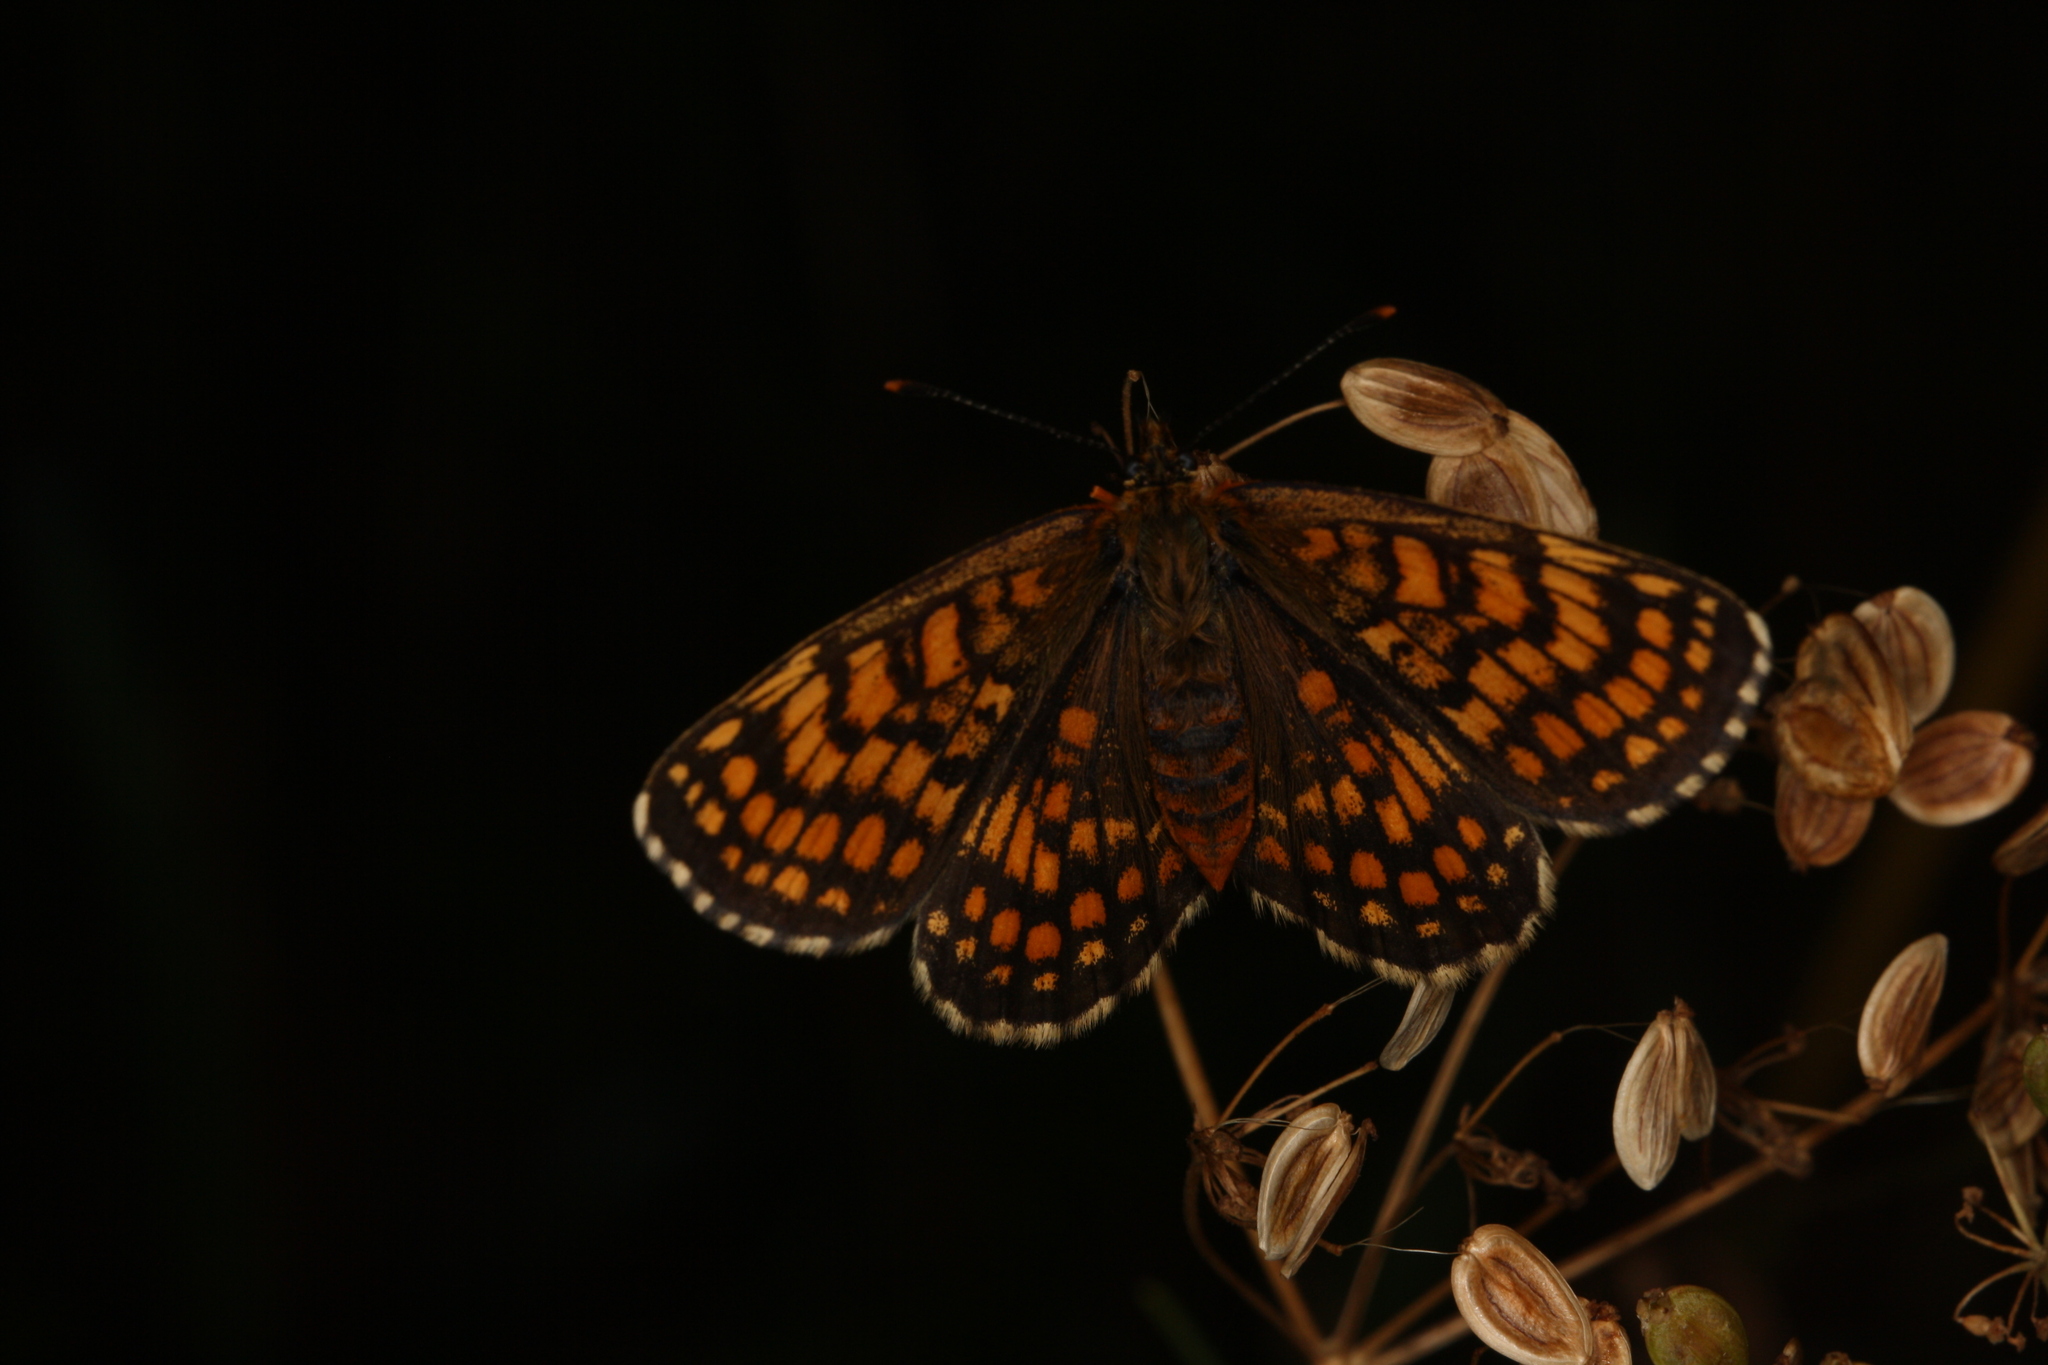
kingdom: Animalia
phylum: Arthropoda
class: Insecta
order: Lepidoptera
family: Nymphalidae
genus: Melitaea
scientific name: Melitaea athalia
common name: Heath fritillary
